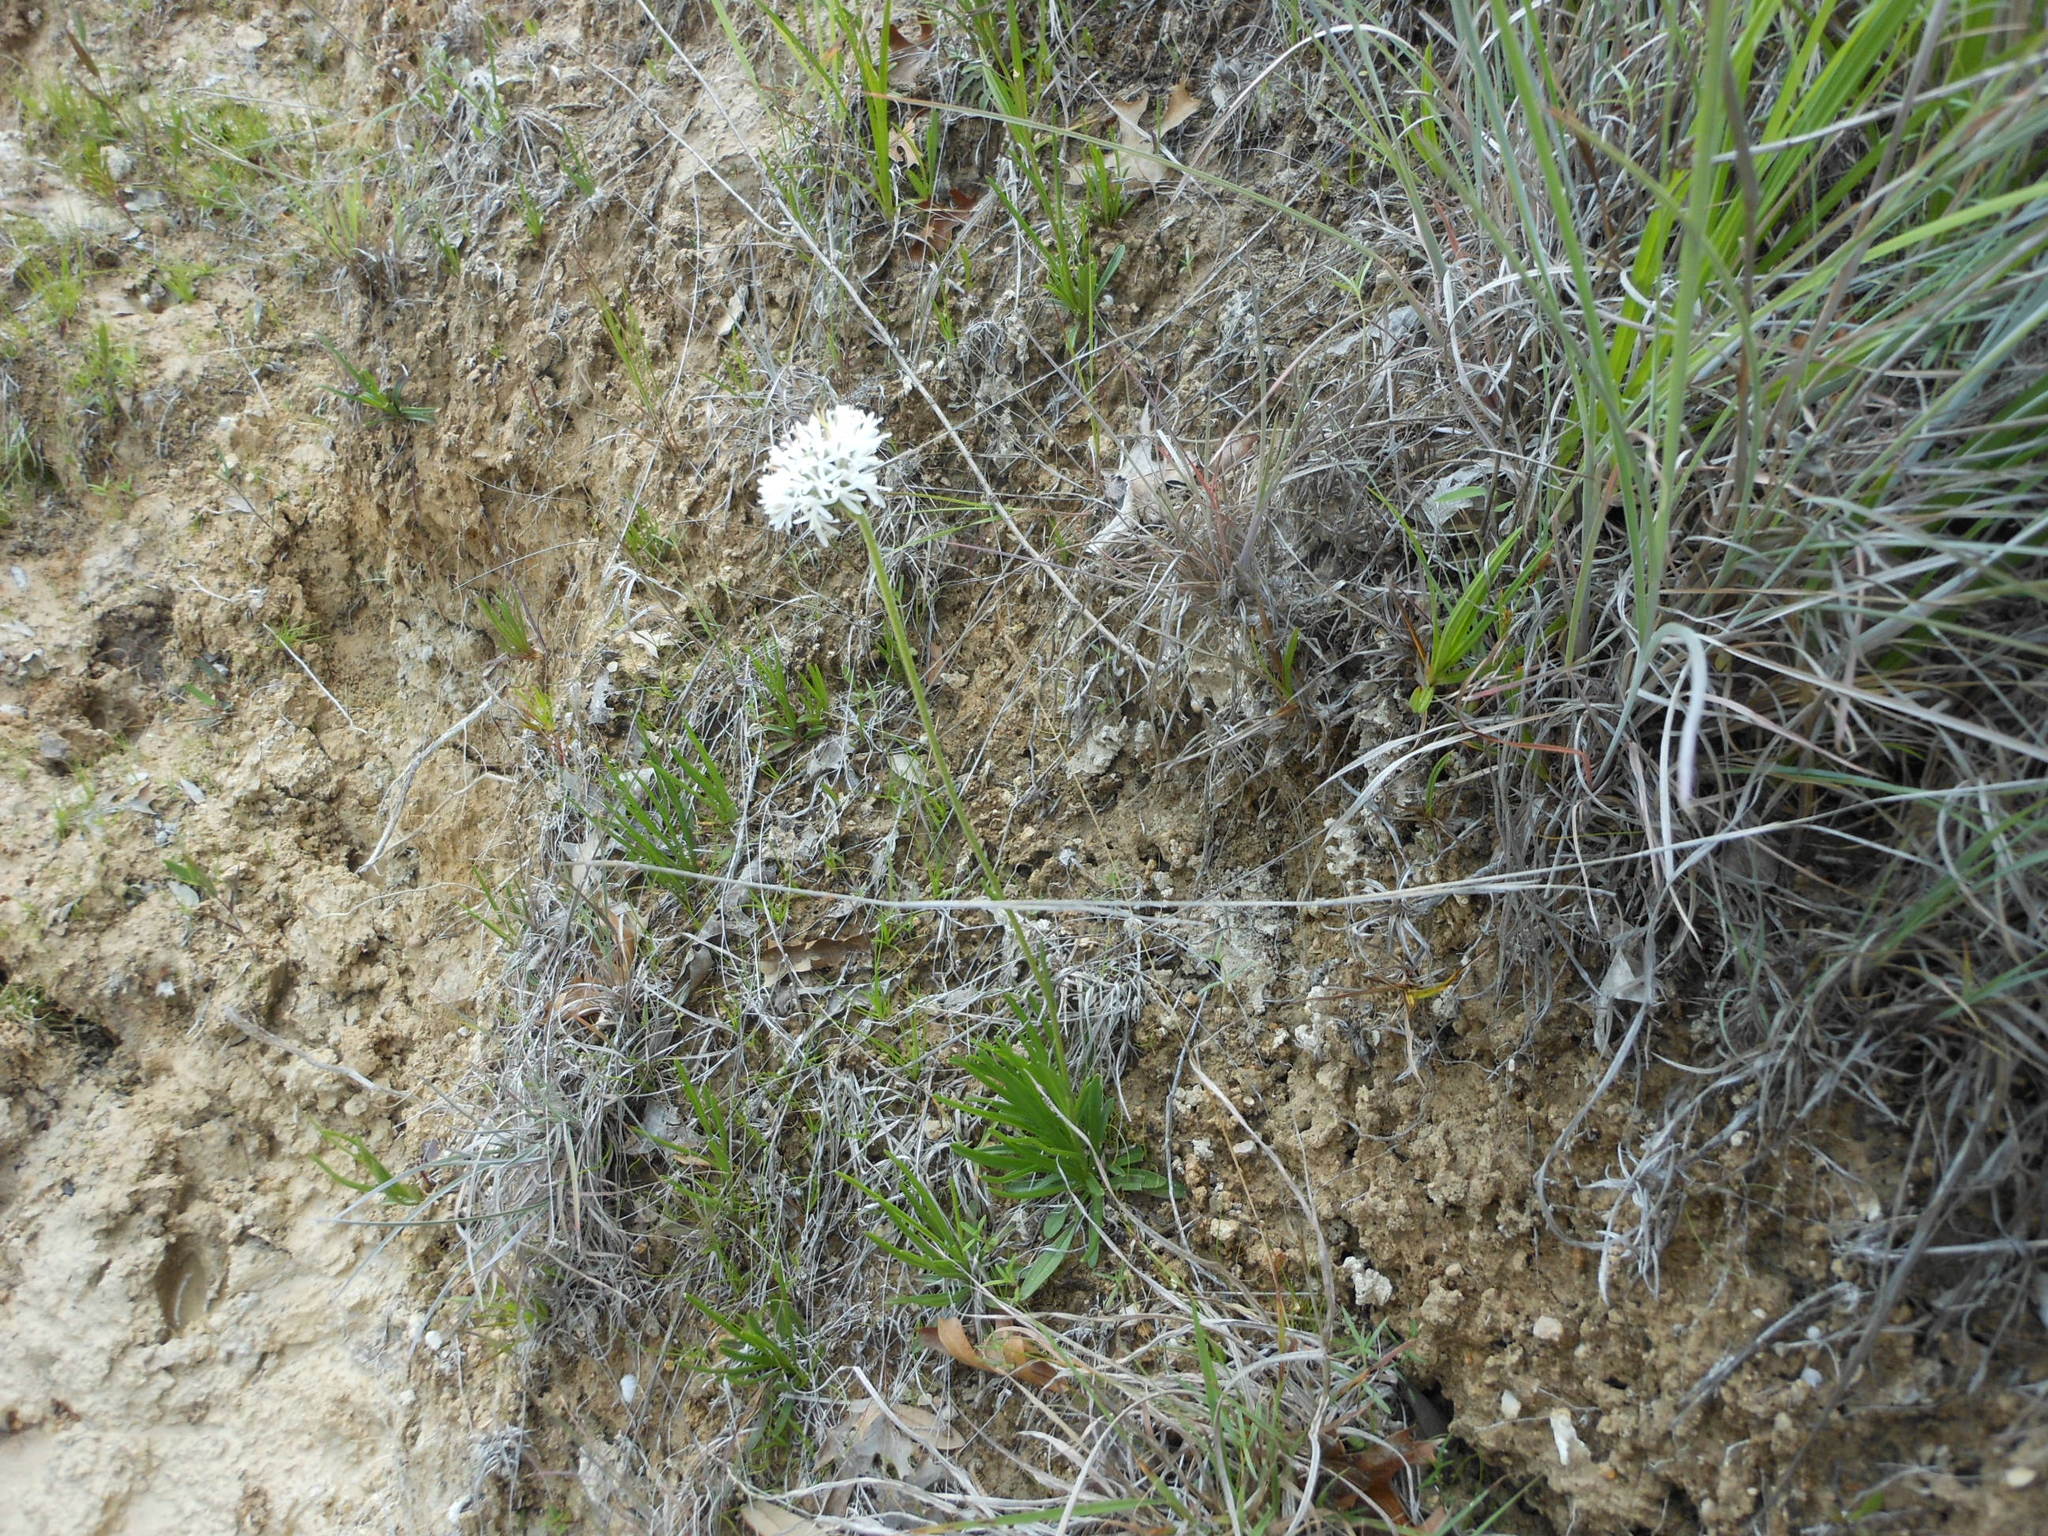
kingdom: Plantae
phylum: Tracheophyta
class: Magnoliopsida
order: Asterales
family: Asteraceae
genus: Marshallia
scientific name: Marshallia caespitosa
